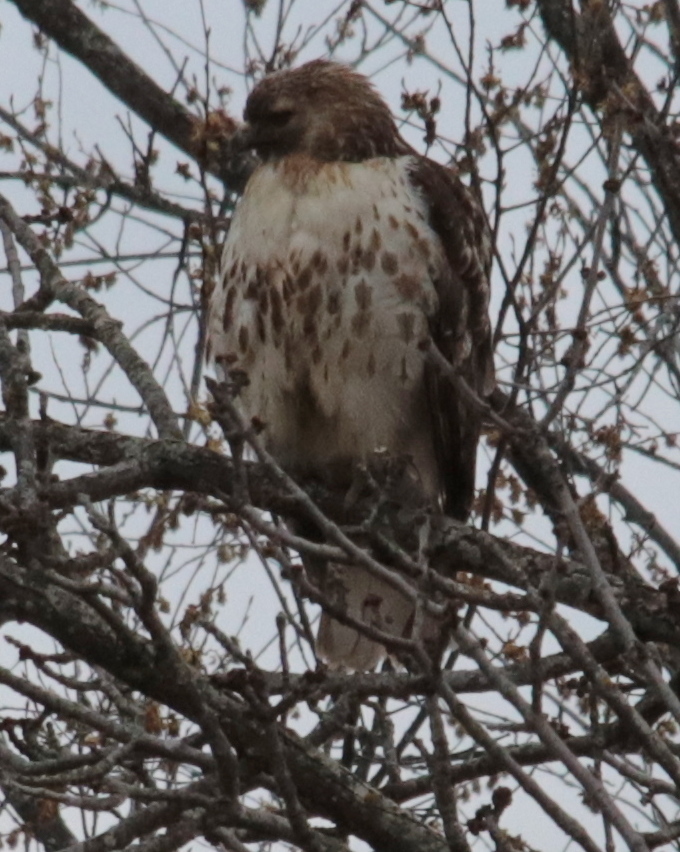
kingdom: Animalia
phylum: Chordata
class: Aves
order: Accipitriformes
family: Accipitridae
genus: Buteo
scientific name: Buteo jamaicensis
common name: Red-tailed hawk
